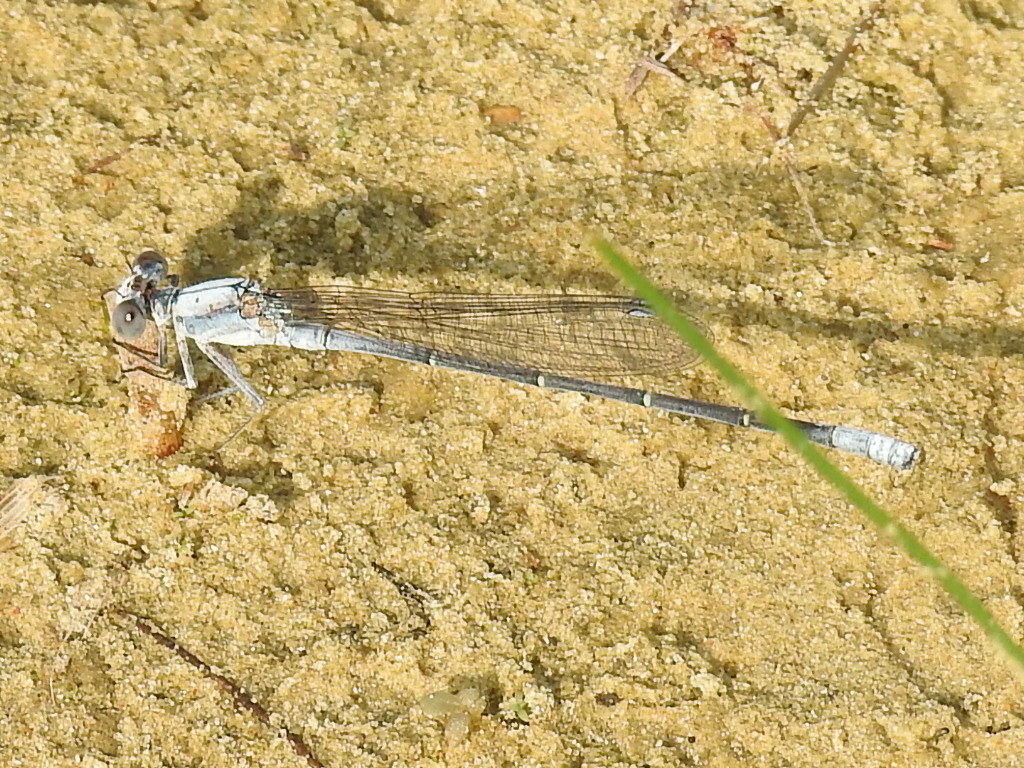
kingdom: Animalia
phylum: Arthropoda
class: Insecta
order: Odonata
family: Coenagrionidae
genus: Argia
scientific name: Argia moesta
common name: Powdered dancer
